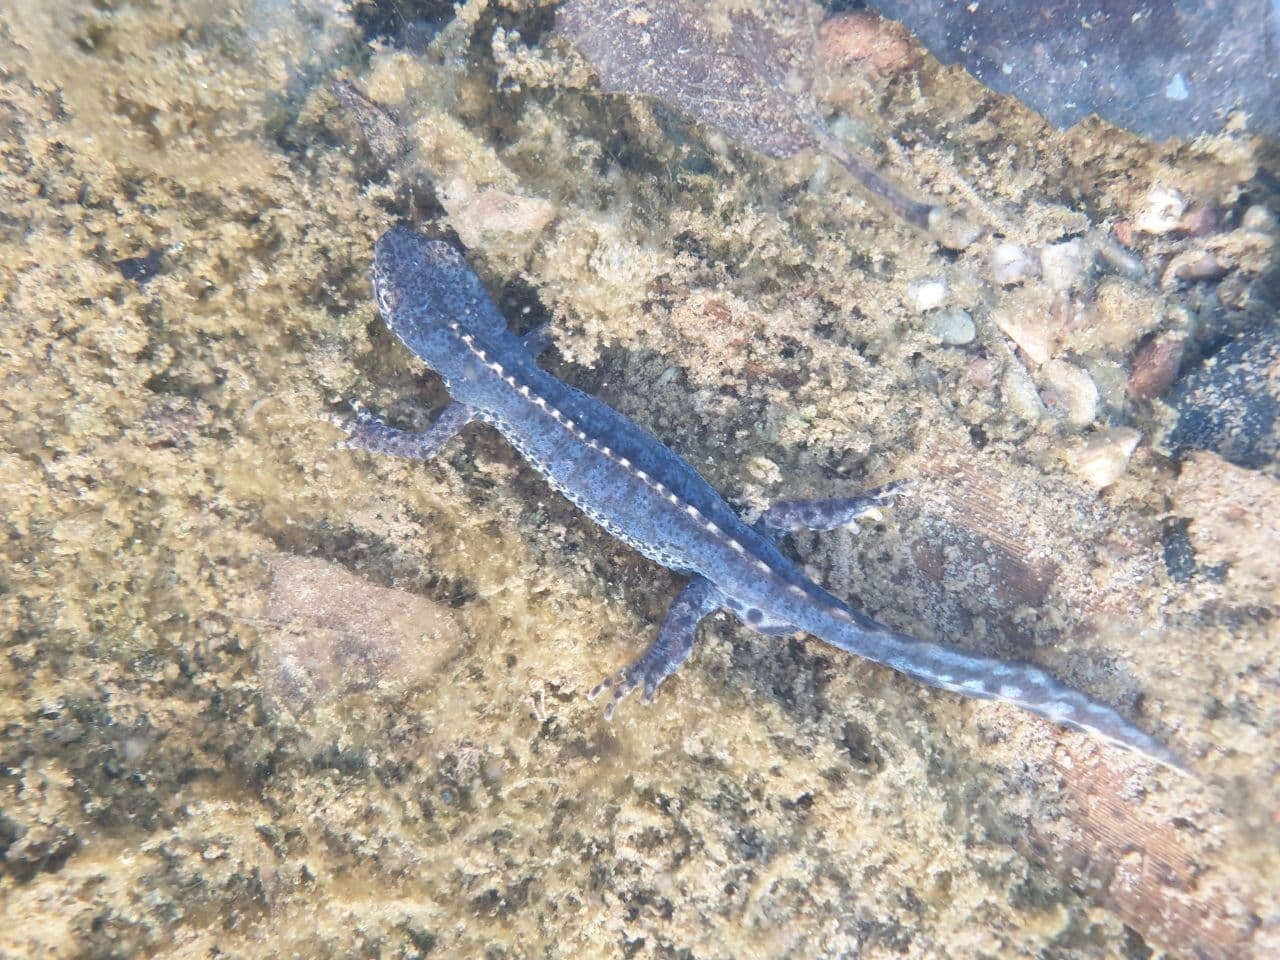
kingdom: Animalia
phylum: Chordata
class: Amphibia
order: Caudata
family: Salamandridae
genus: Ichthyosaura
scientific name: Ichthyosaura alpestris
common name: Alpine newt
